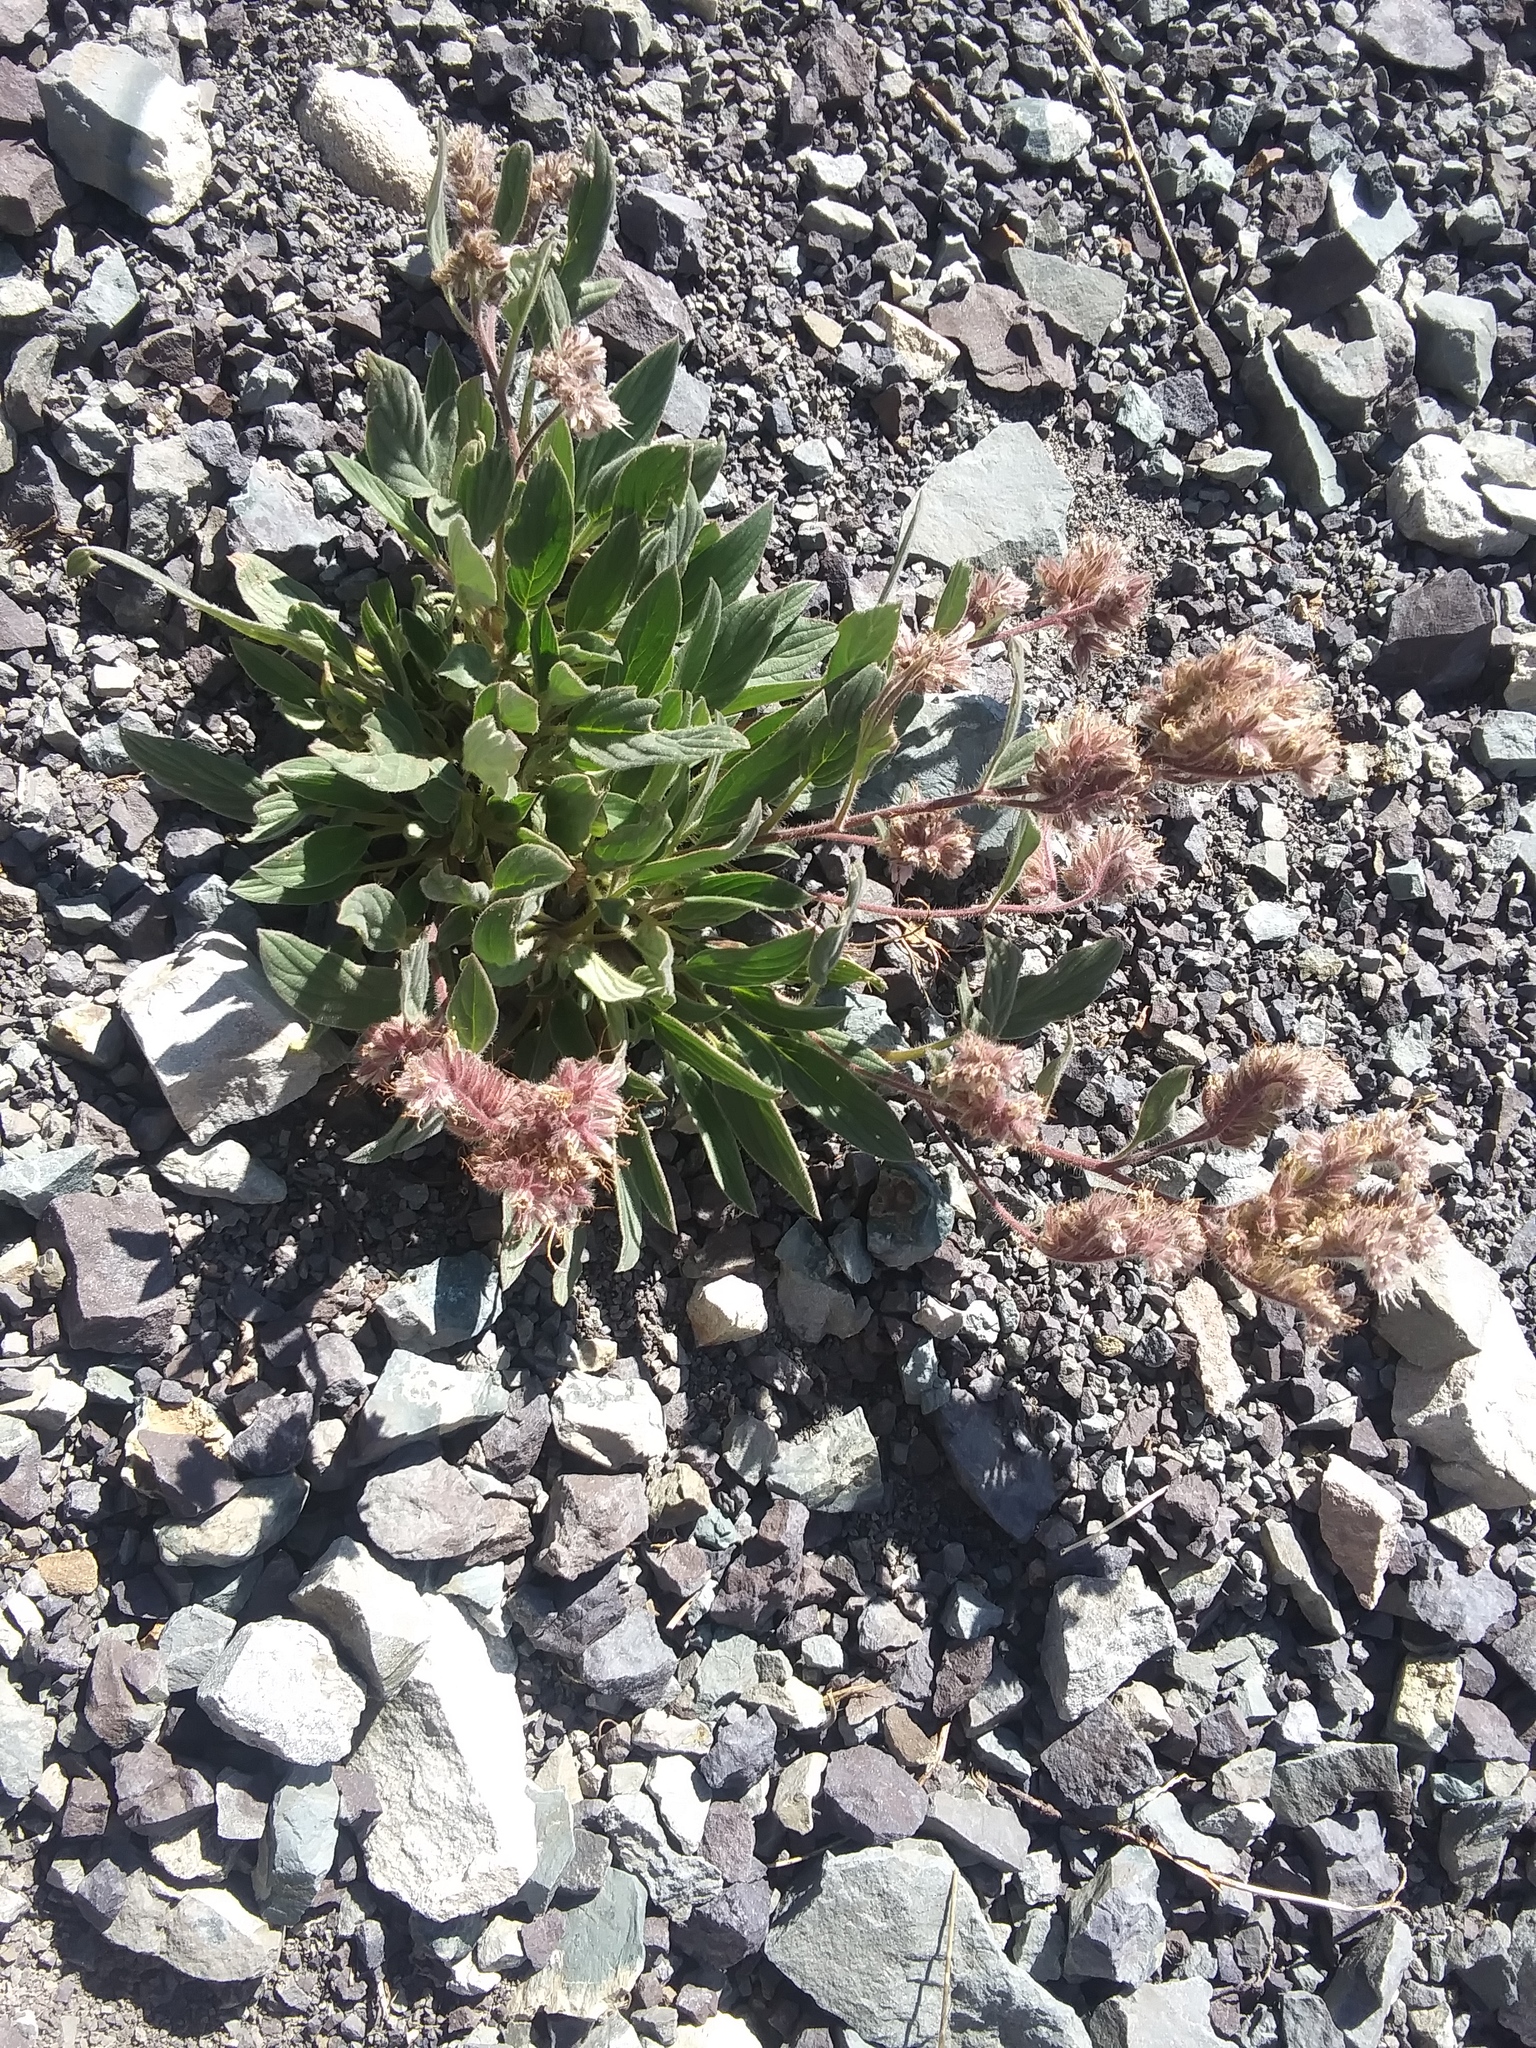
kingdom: Plantae
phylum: Tracheophyta
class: Magnoliopsida
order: Boraginales
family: Hydrophyllaceae
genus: Phacelia
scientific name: Phacelia hastata
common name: Silver-leaved phacelia
